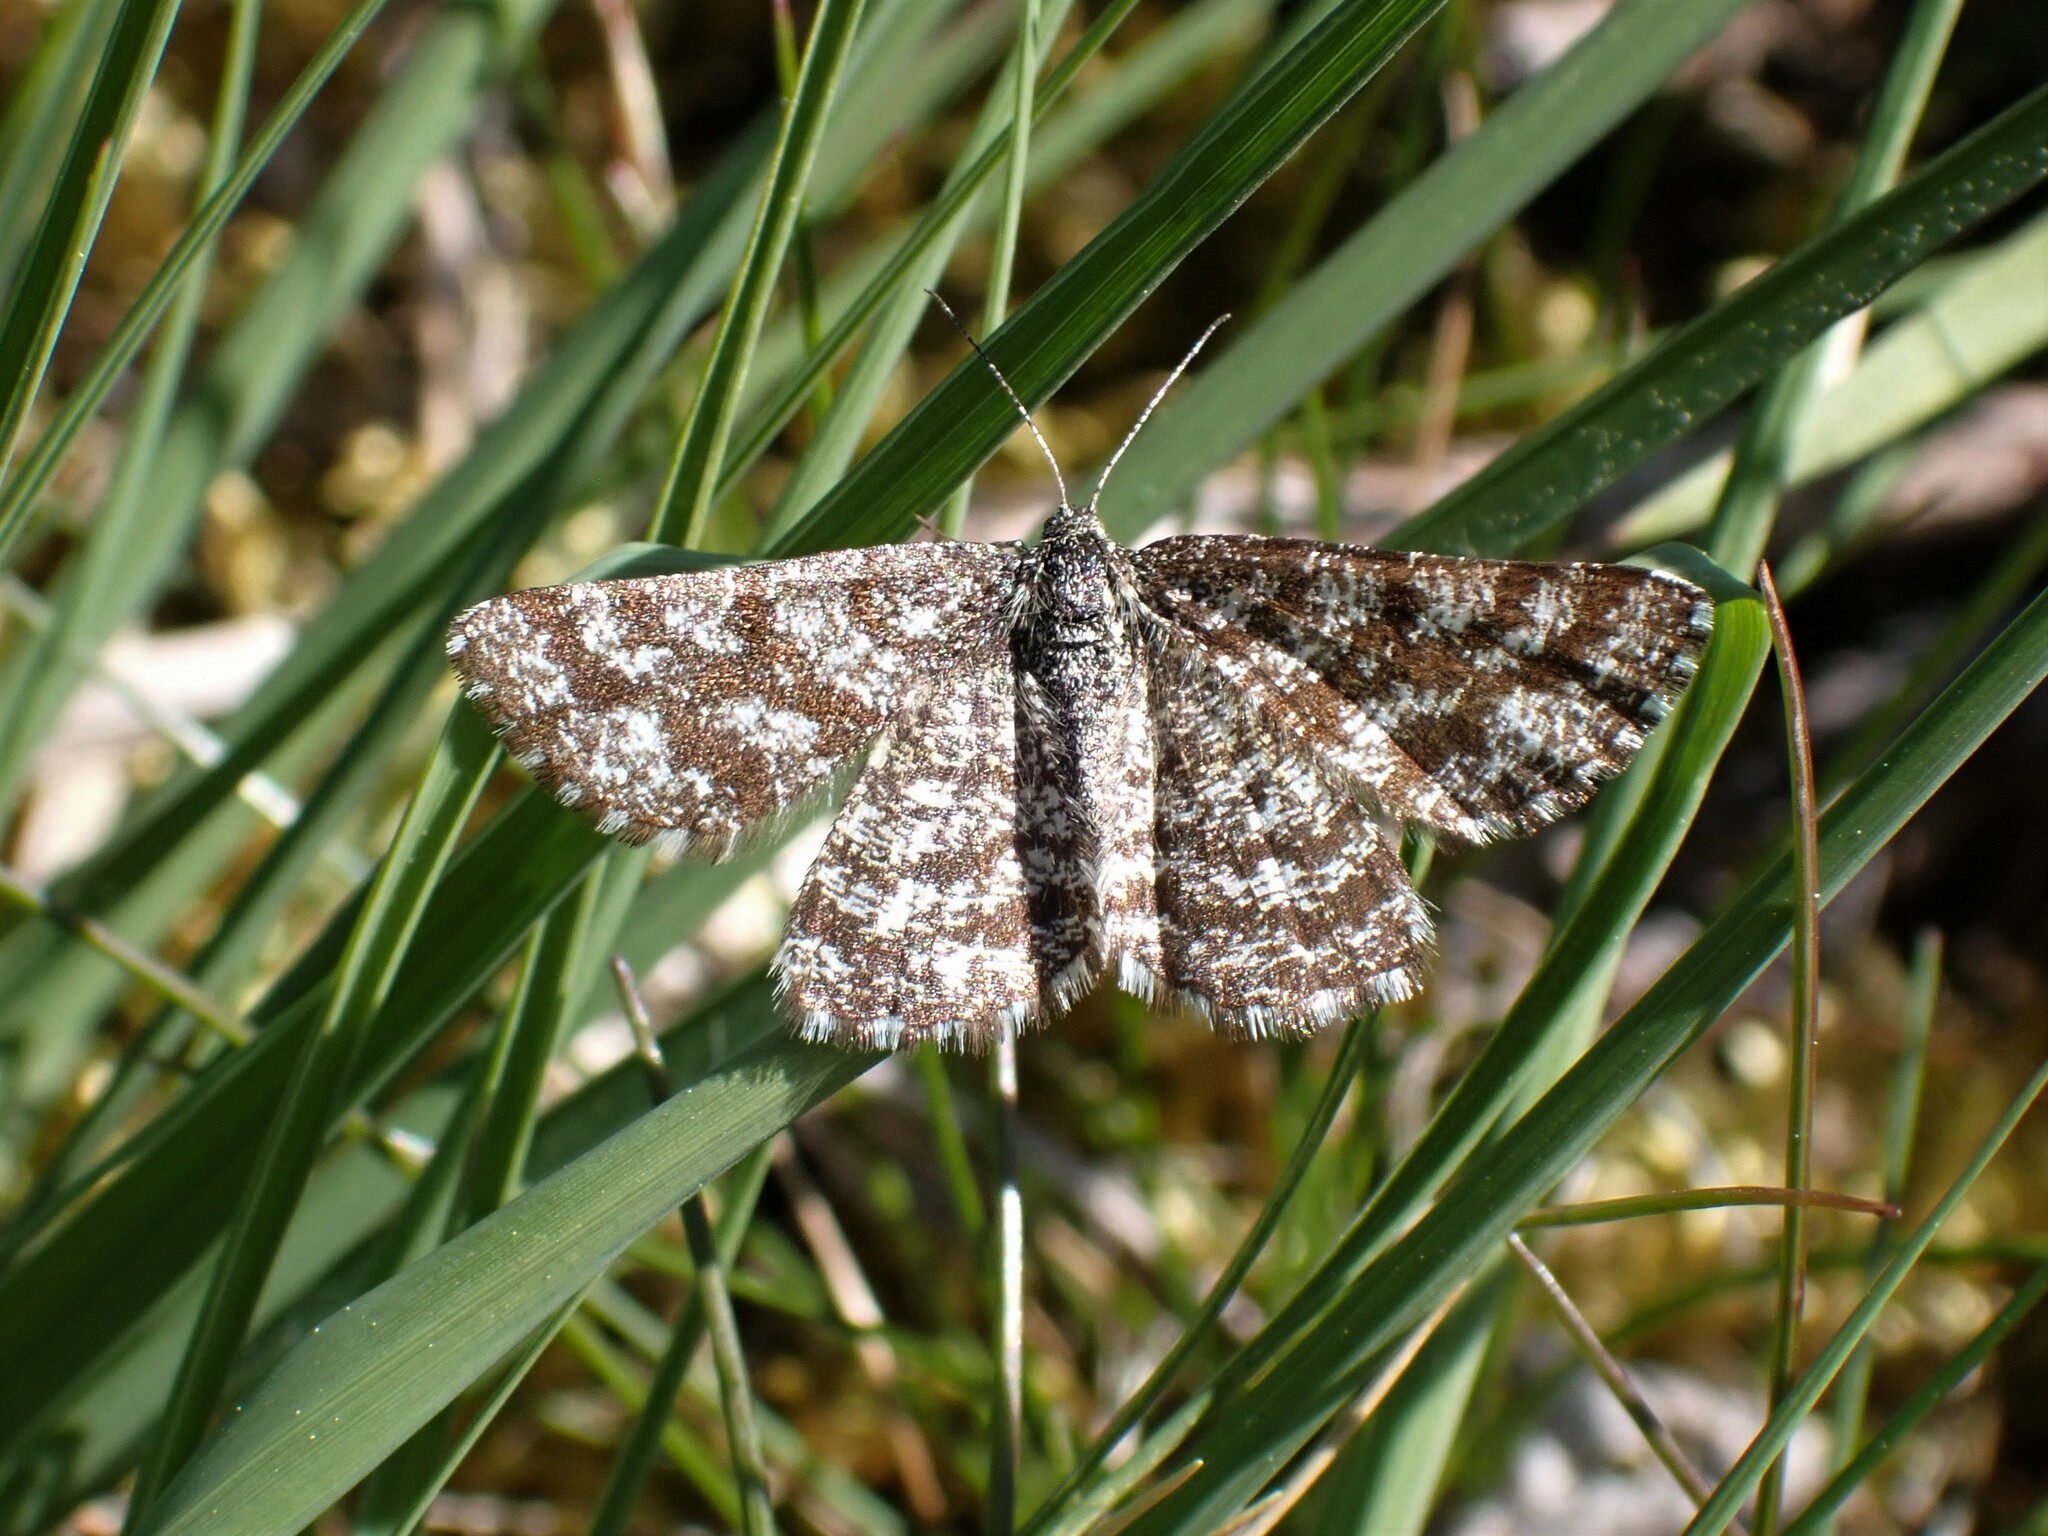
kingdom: Animalia
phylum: Arthropoda
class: Insecta
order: Lepidoptera
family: Geometridae
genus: Ematurga
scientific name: Ematurga atomaria
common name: Common heath
